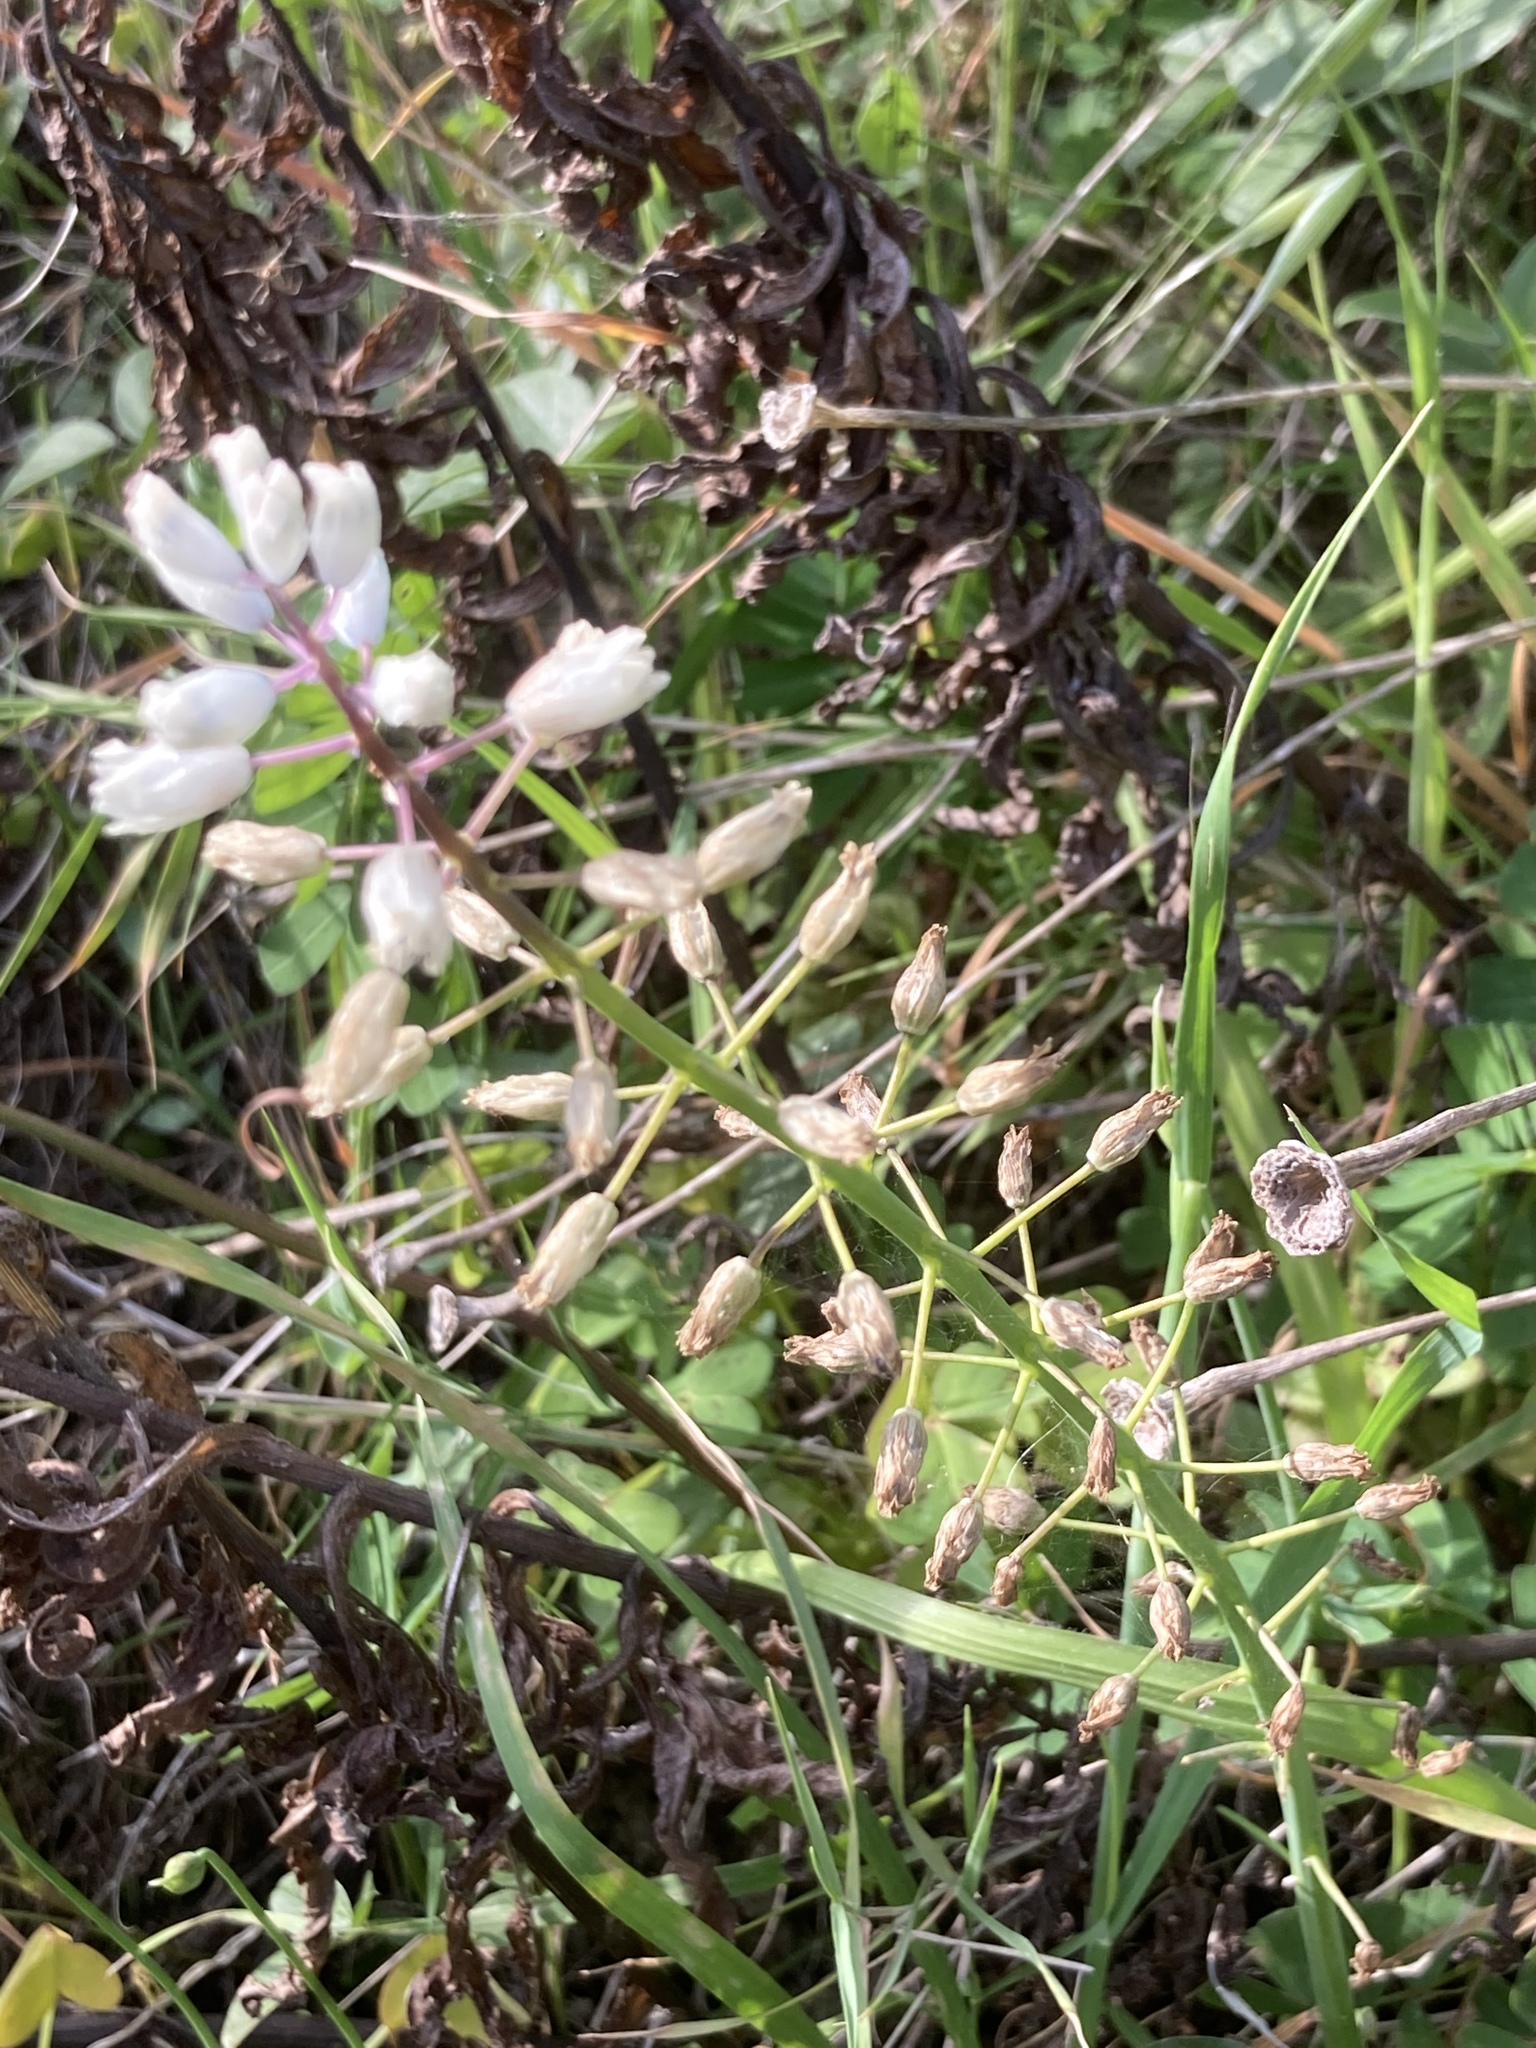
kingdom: Plantae
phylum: Tracheophyta
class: Liliopsida
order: Asparagales
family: Asparagaceae
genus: Bellevalia
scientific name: Bellevalia romana
